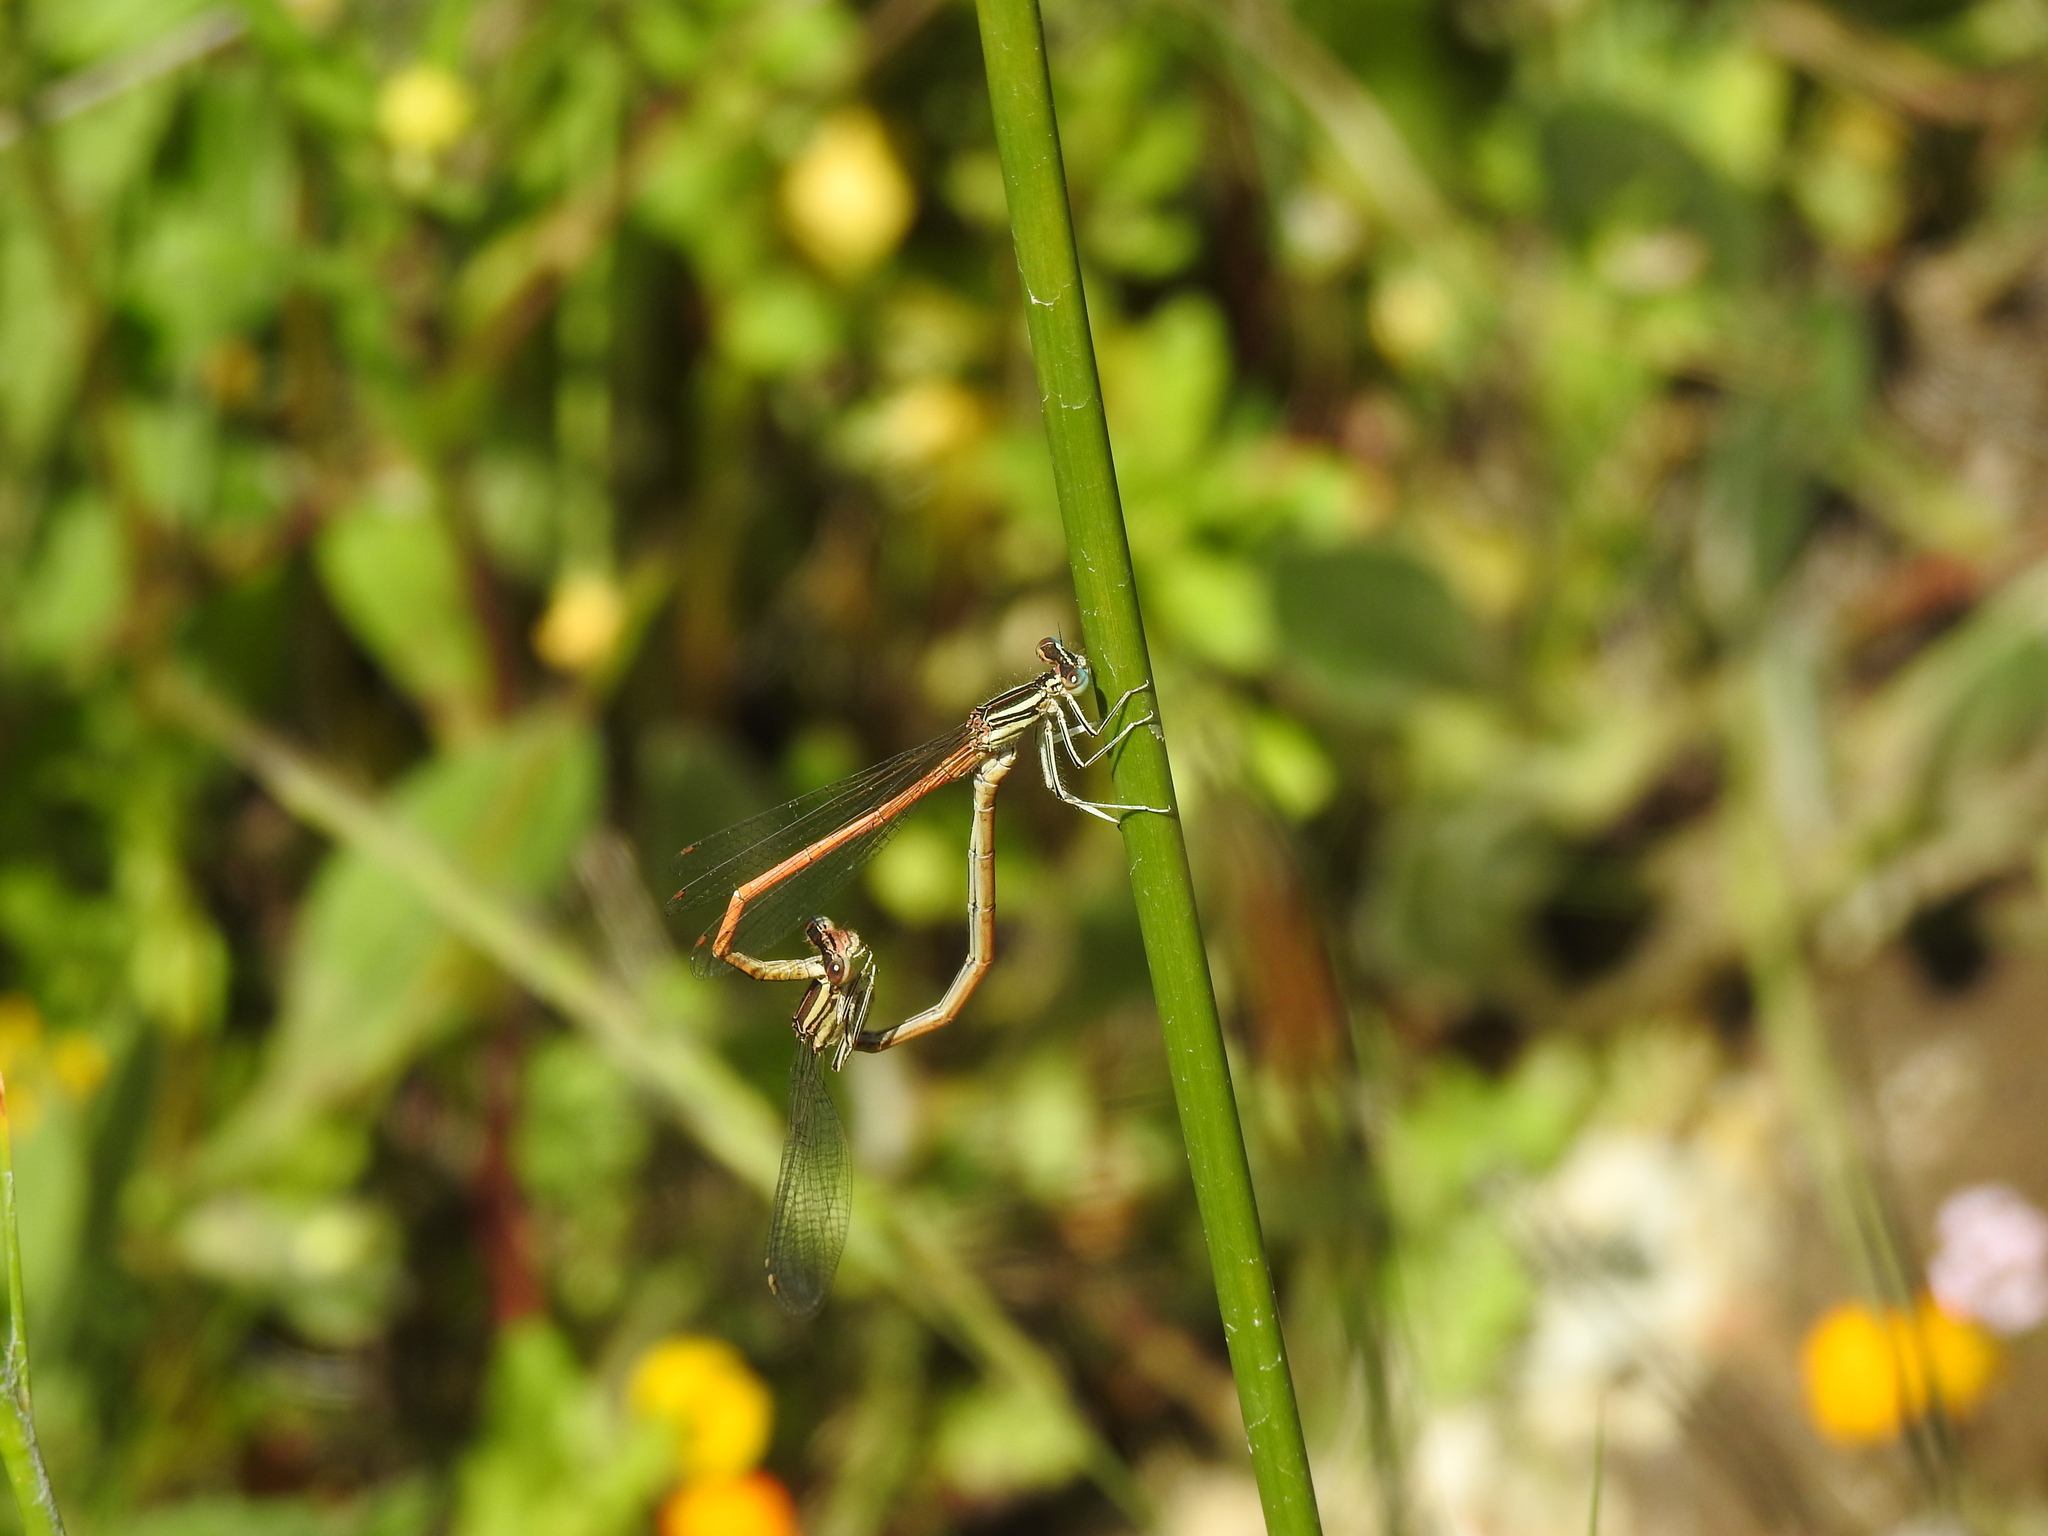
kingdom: Animalia
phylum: Arthropoda
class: Insecta
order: Odonata
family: Platycnemididae
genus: Platycnemis
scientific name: Platycnemis acutipennis
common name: Orange featherleg
